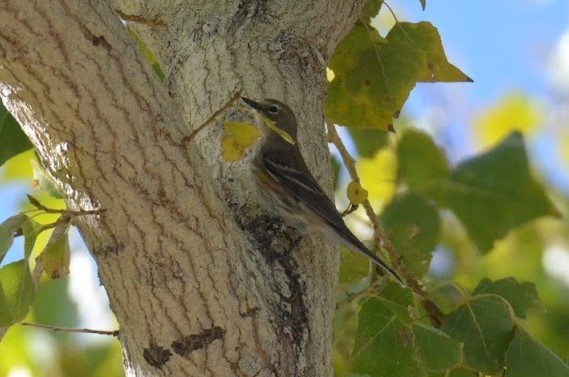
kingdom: Animalia
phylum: Chordata
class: Aves
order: Passeriformes
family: Parulidae
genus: Setophaga
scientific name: Setophaga coronata
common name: Myrtle warbler
